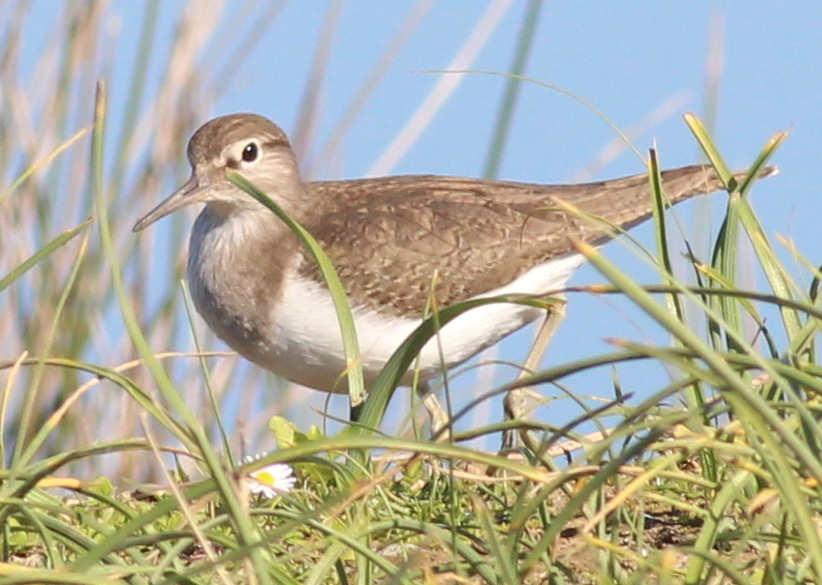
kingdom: Animalia
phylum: Chordata
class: Aves
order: Charadriiformes
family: Scolopacidae
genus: Actitis
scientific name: Actitis hypoleucos
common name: Common sandpiper
